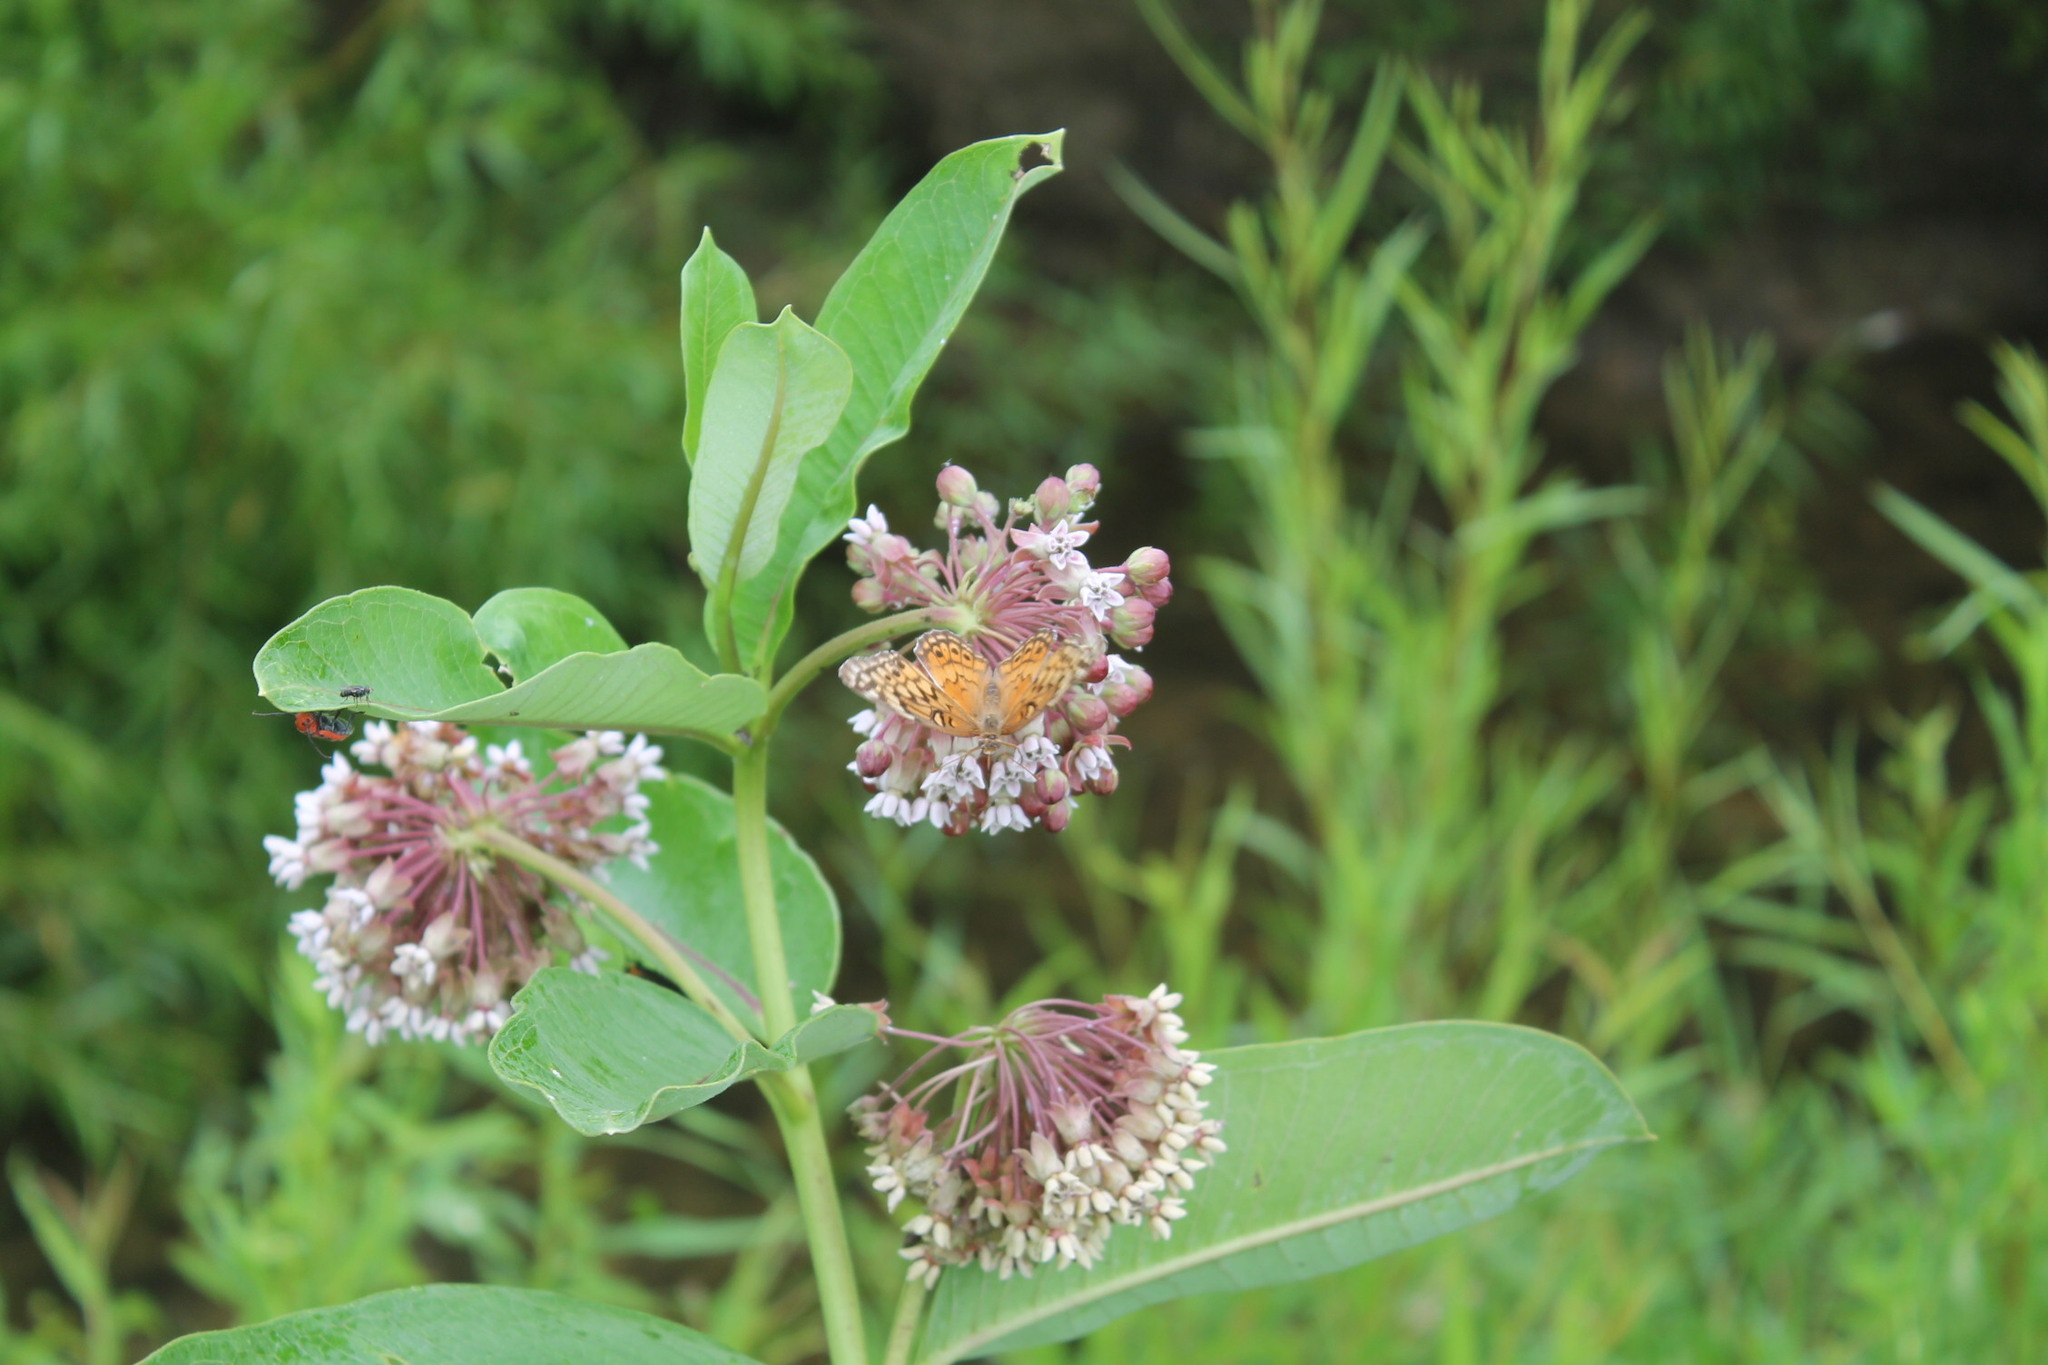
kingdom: Animalia
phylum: Arthropoda
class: Insecta
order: Lepidoptera
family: Nymphalidae
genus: Euptoieta
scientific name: Euptoieta claudia
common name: Variegated fritillary
